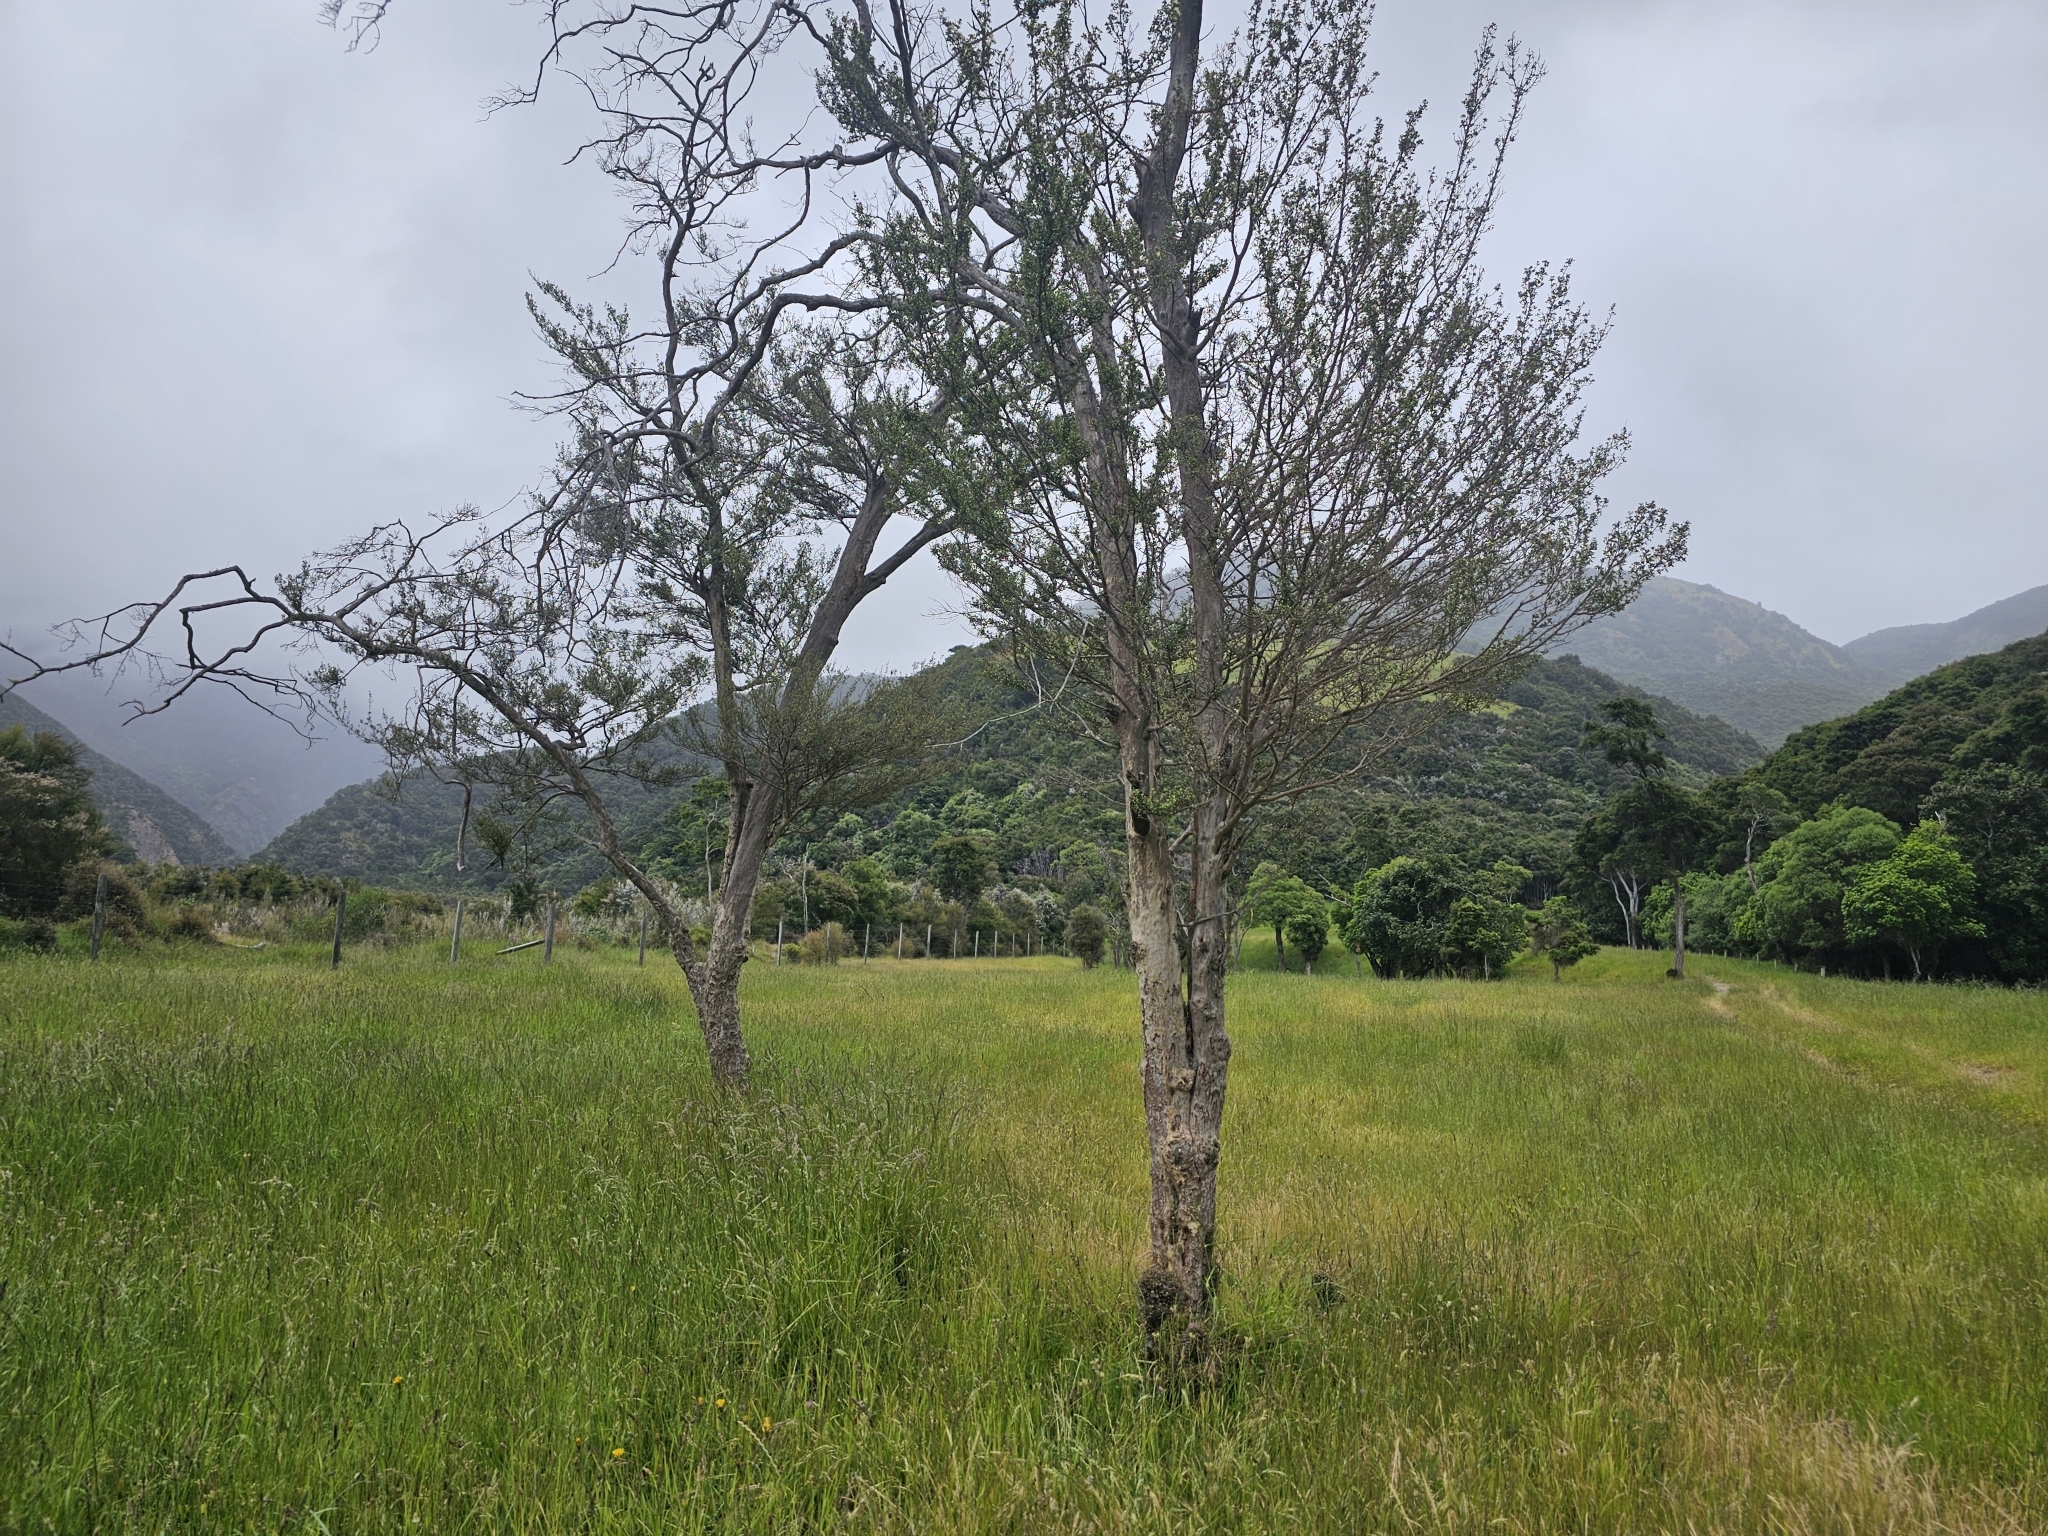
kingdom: Plantae
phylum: Tracheophyta
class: Magnoliopsida
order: Myrtales
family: Myrtaceae
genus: Lophomyrtus
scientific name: Lophomyrtus obcordata
